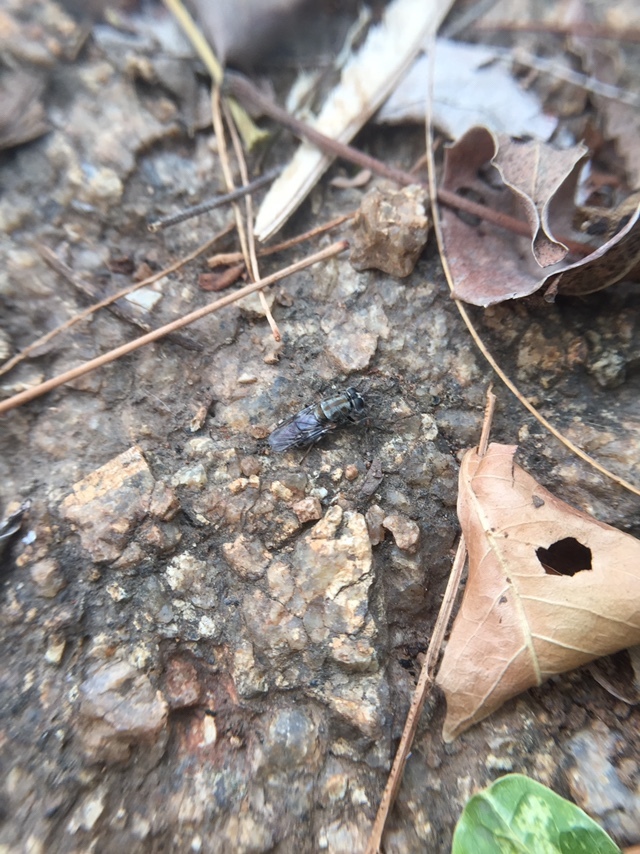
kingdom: Animalia
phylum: Arthropoda
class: Insecta
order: Diptera
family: Stratiomyidae
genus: Adoxomyia
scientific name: Adoxomyia heminopla
